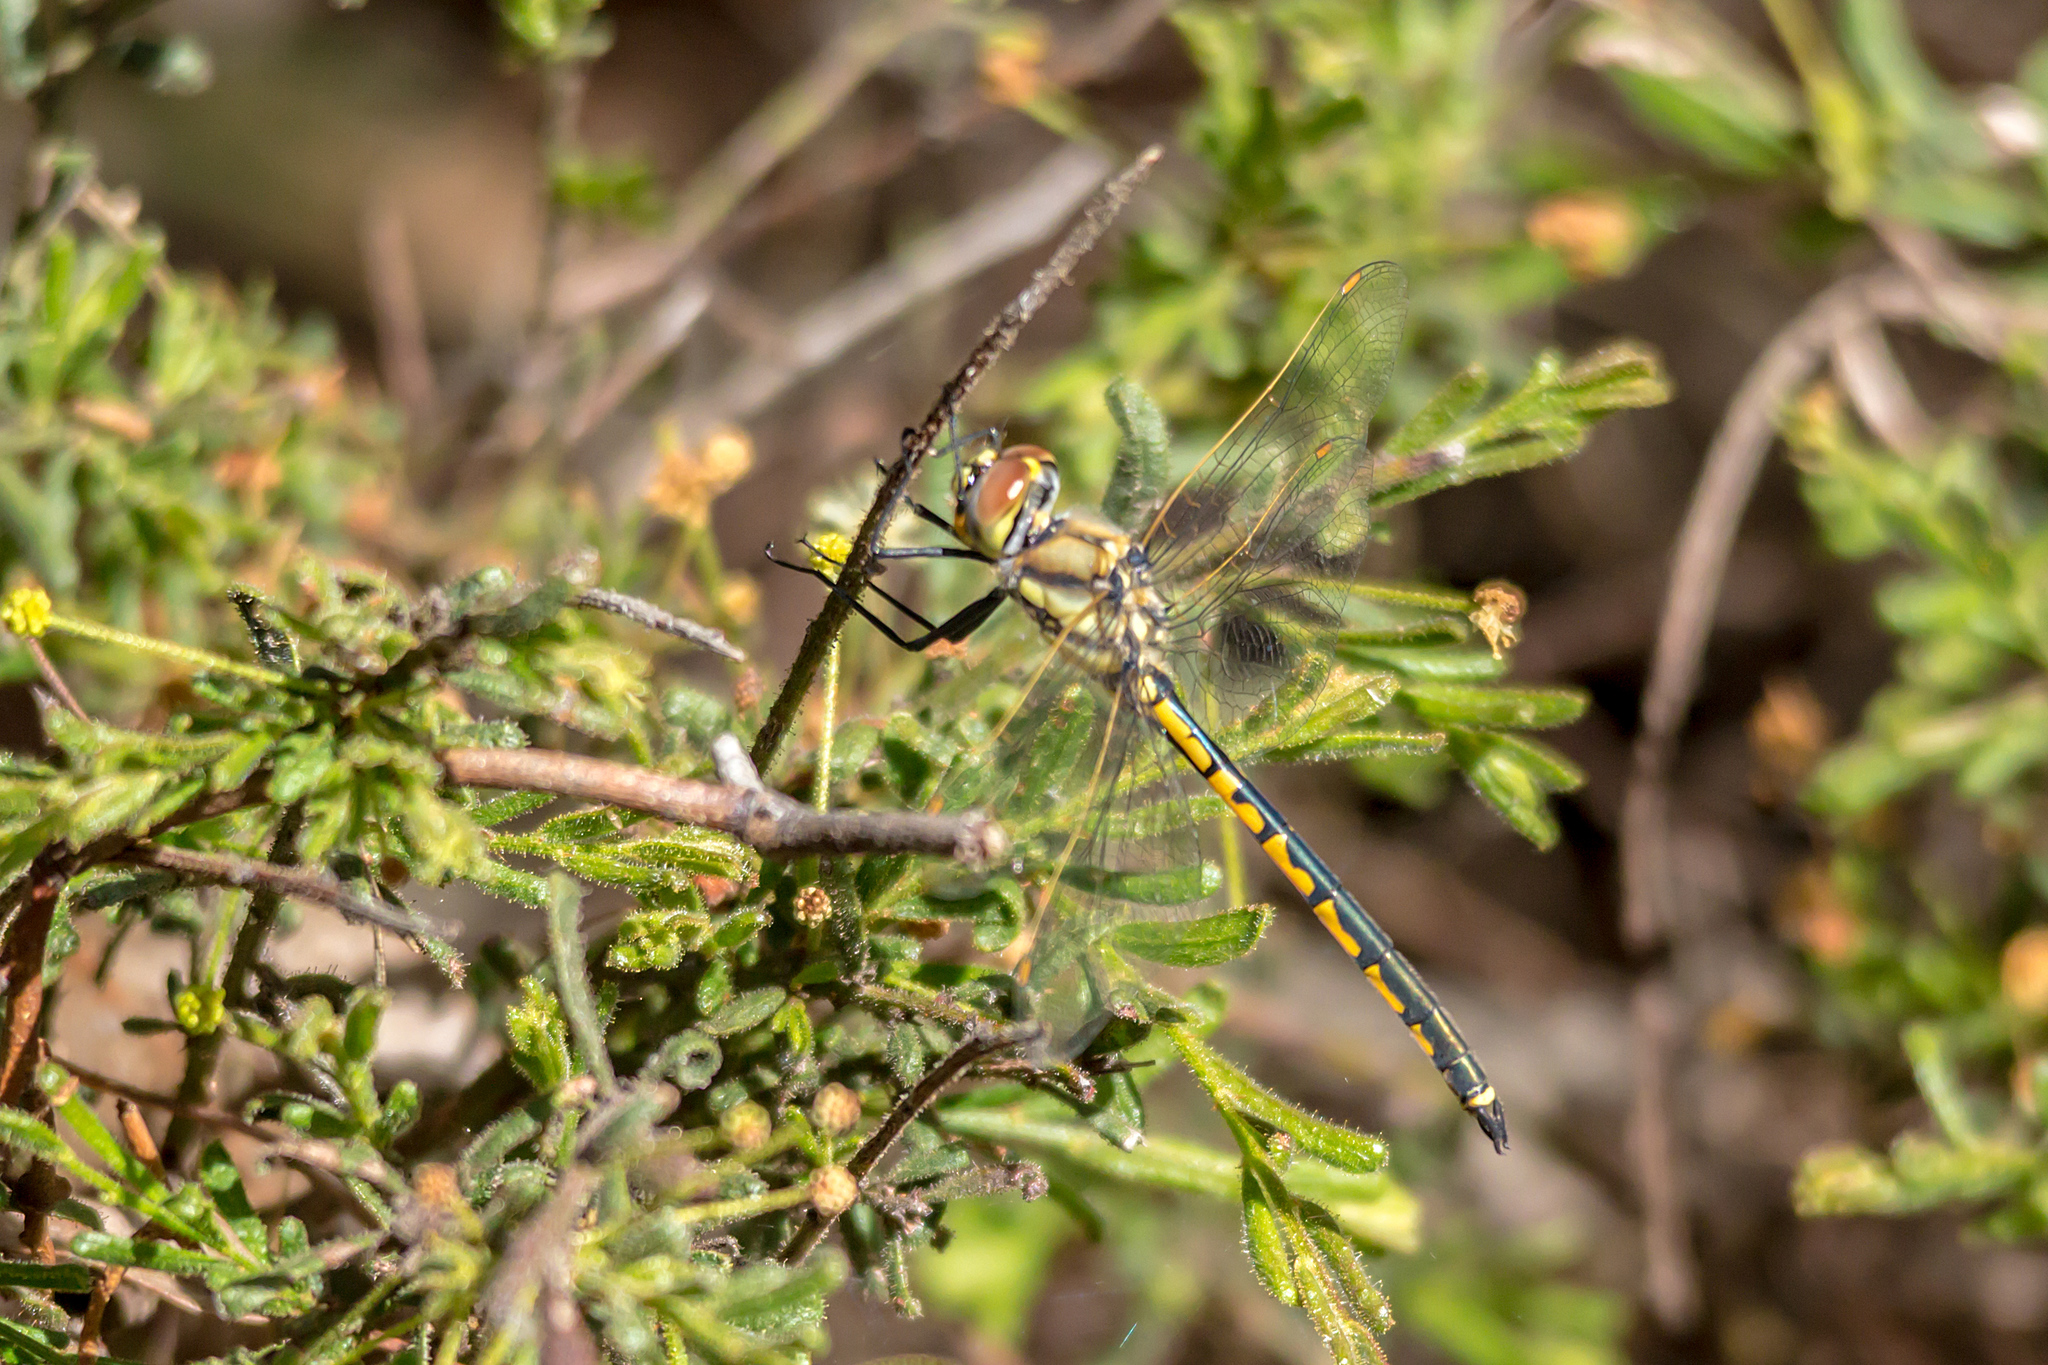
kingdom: Animalia
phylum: Arthropoda
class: Insecta
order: Odonata
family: Corduliidae
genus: Hemicordulia
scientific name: Hemicordulia tau
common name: Tau emerald
